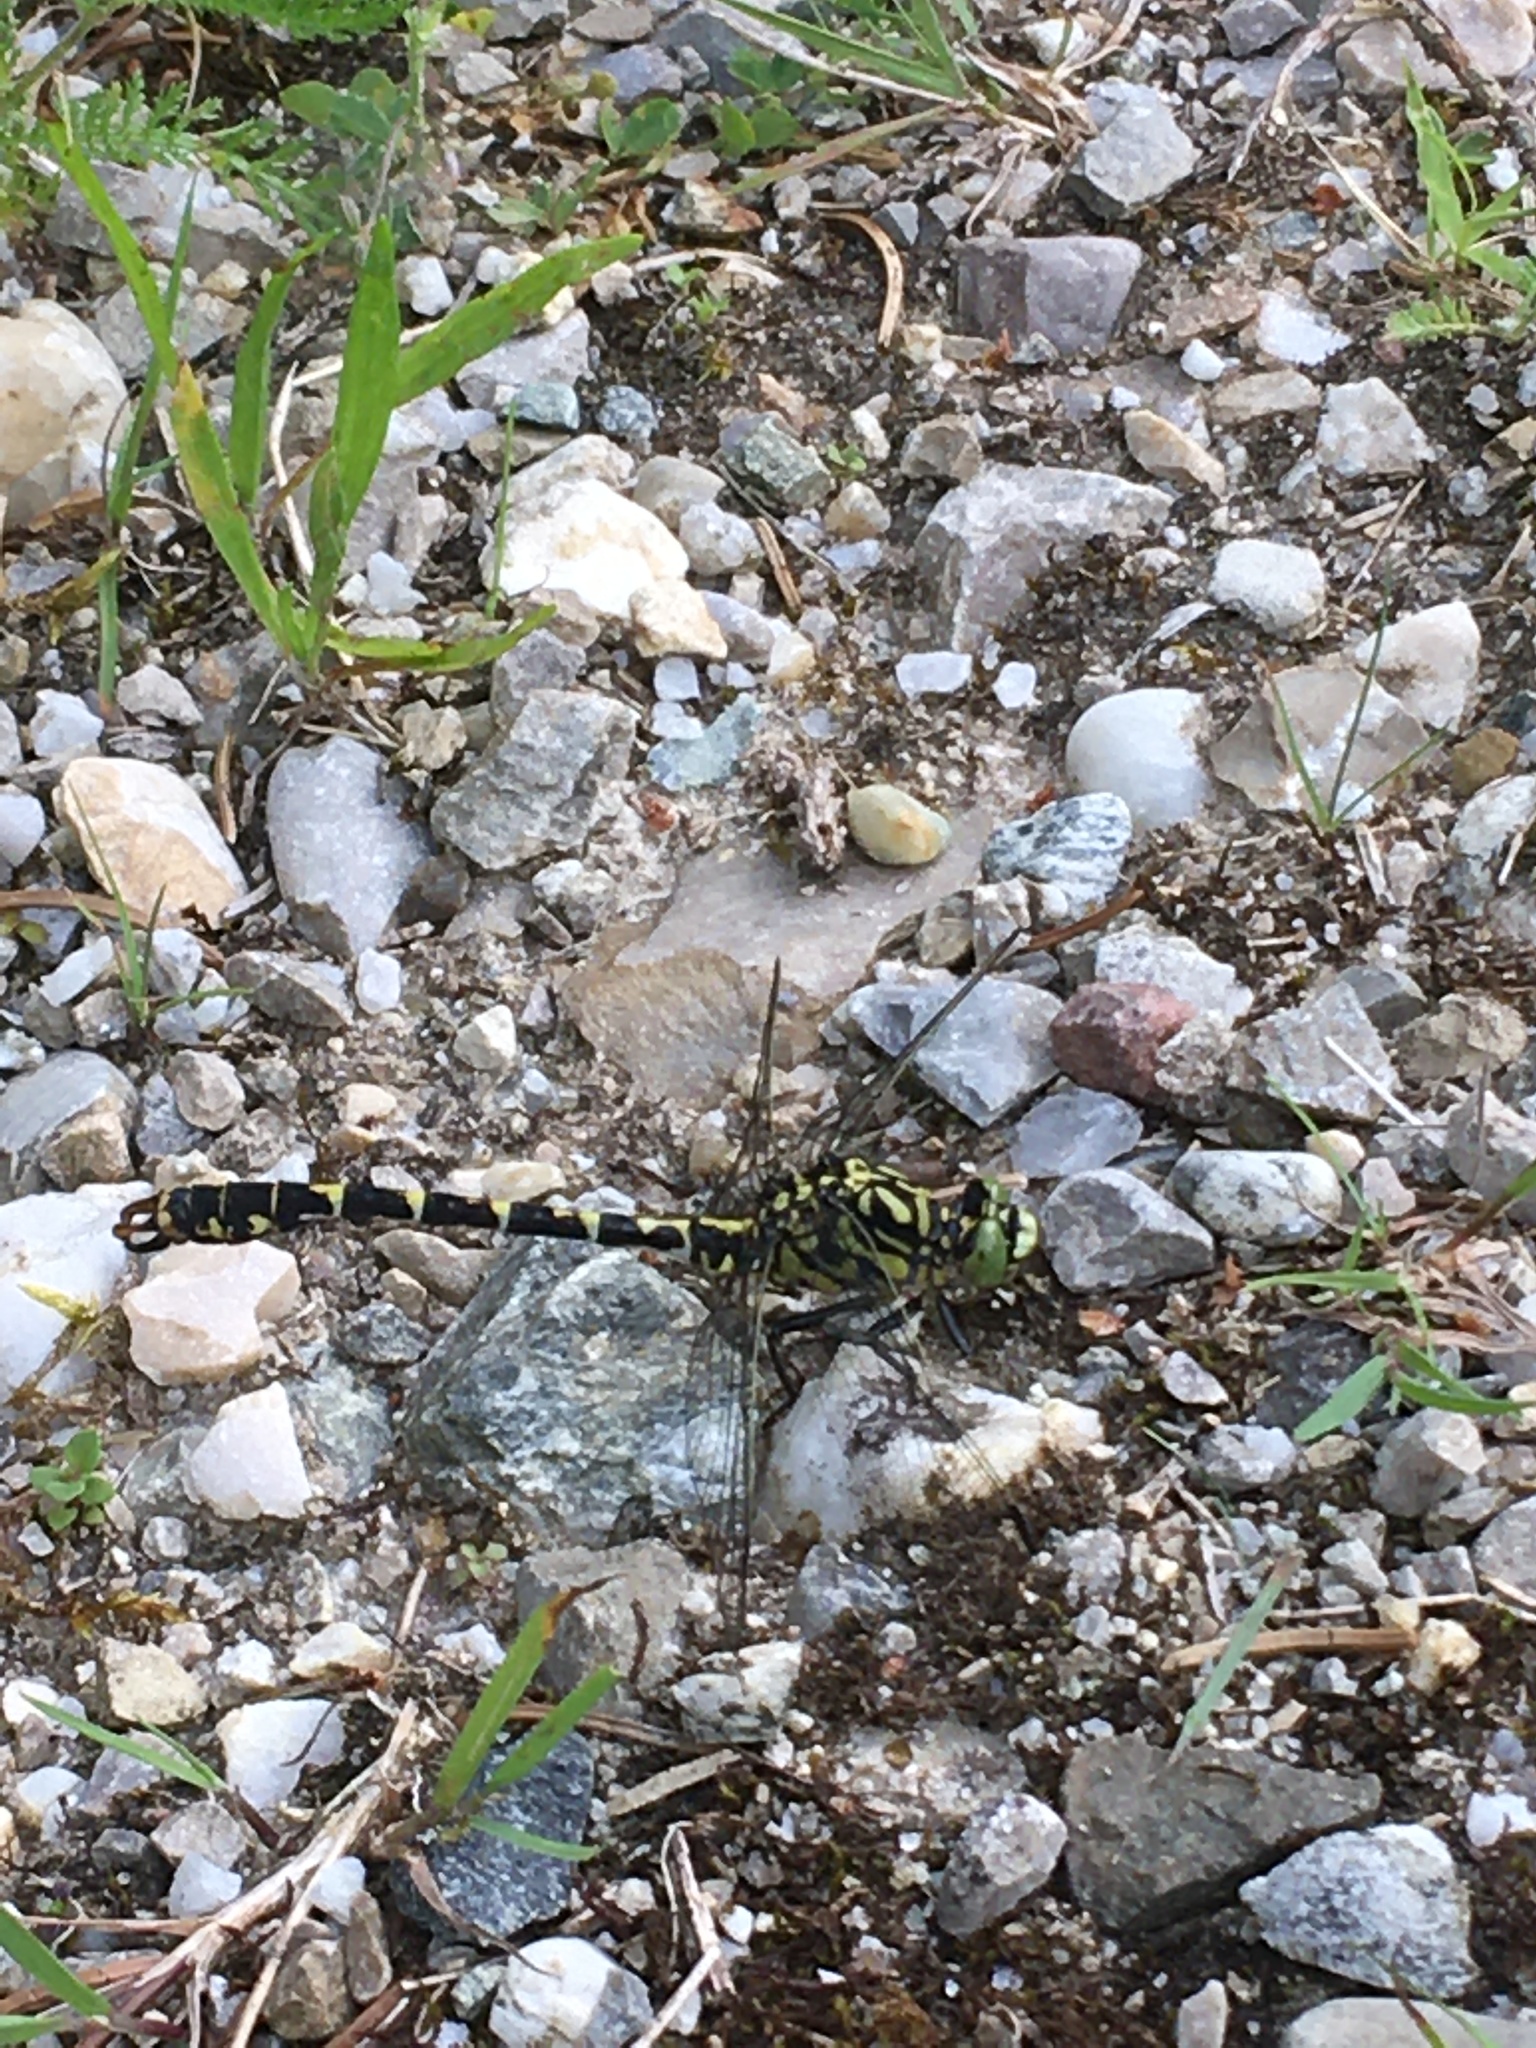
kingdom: Animalia
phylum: Arthropoda
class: Insecta
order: Odonata
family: Gomphidae
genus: Onychogomphus
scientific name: Onychogomphus forcipatus
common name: Small pincertail
